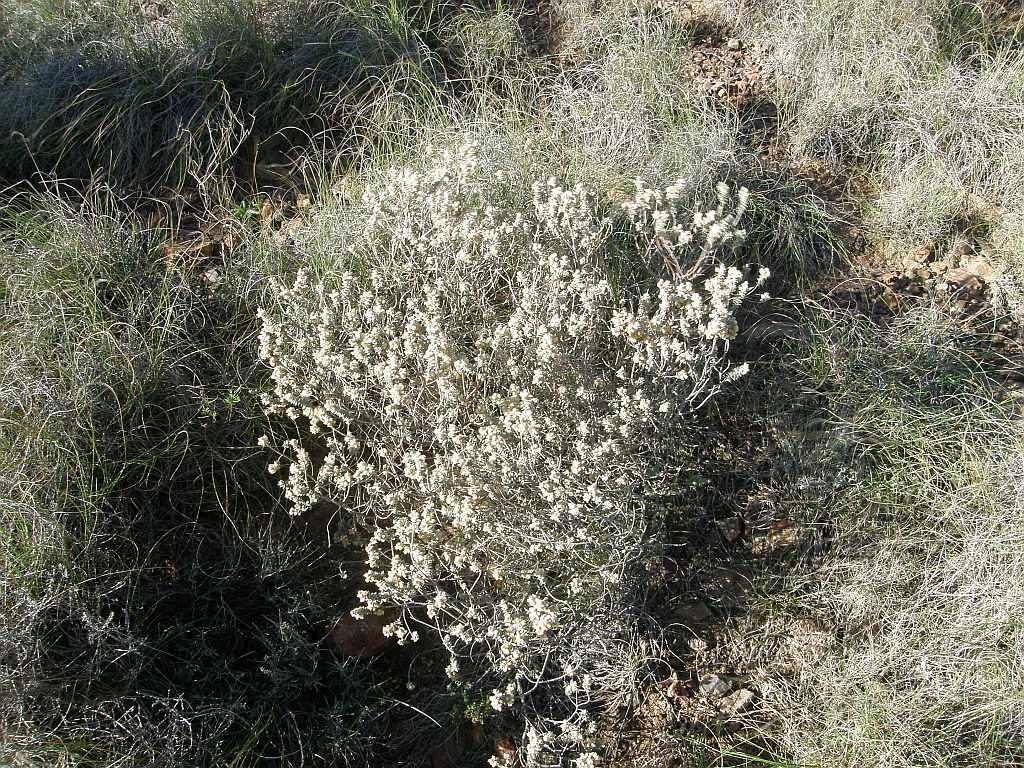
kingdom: Plantae
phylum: Tracheophyta
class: Magnoliopsida
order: Malpighiales
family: Peraceae
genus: Clutia
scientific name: Clutia tomentosa
